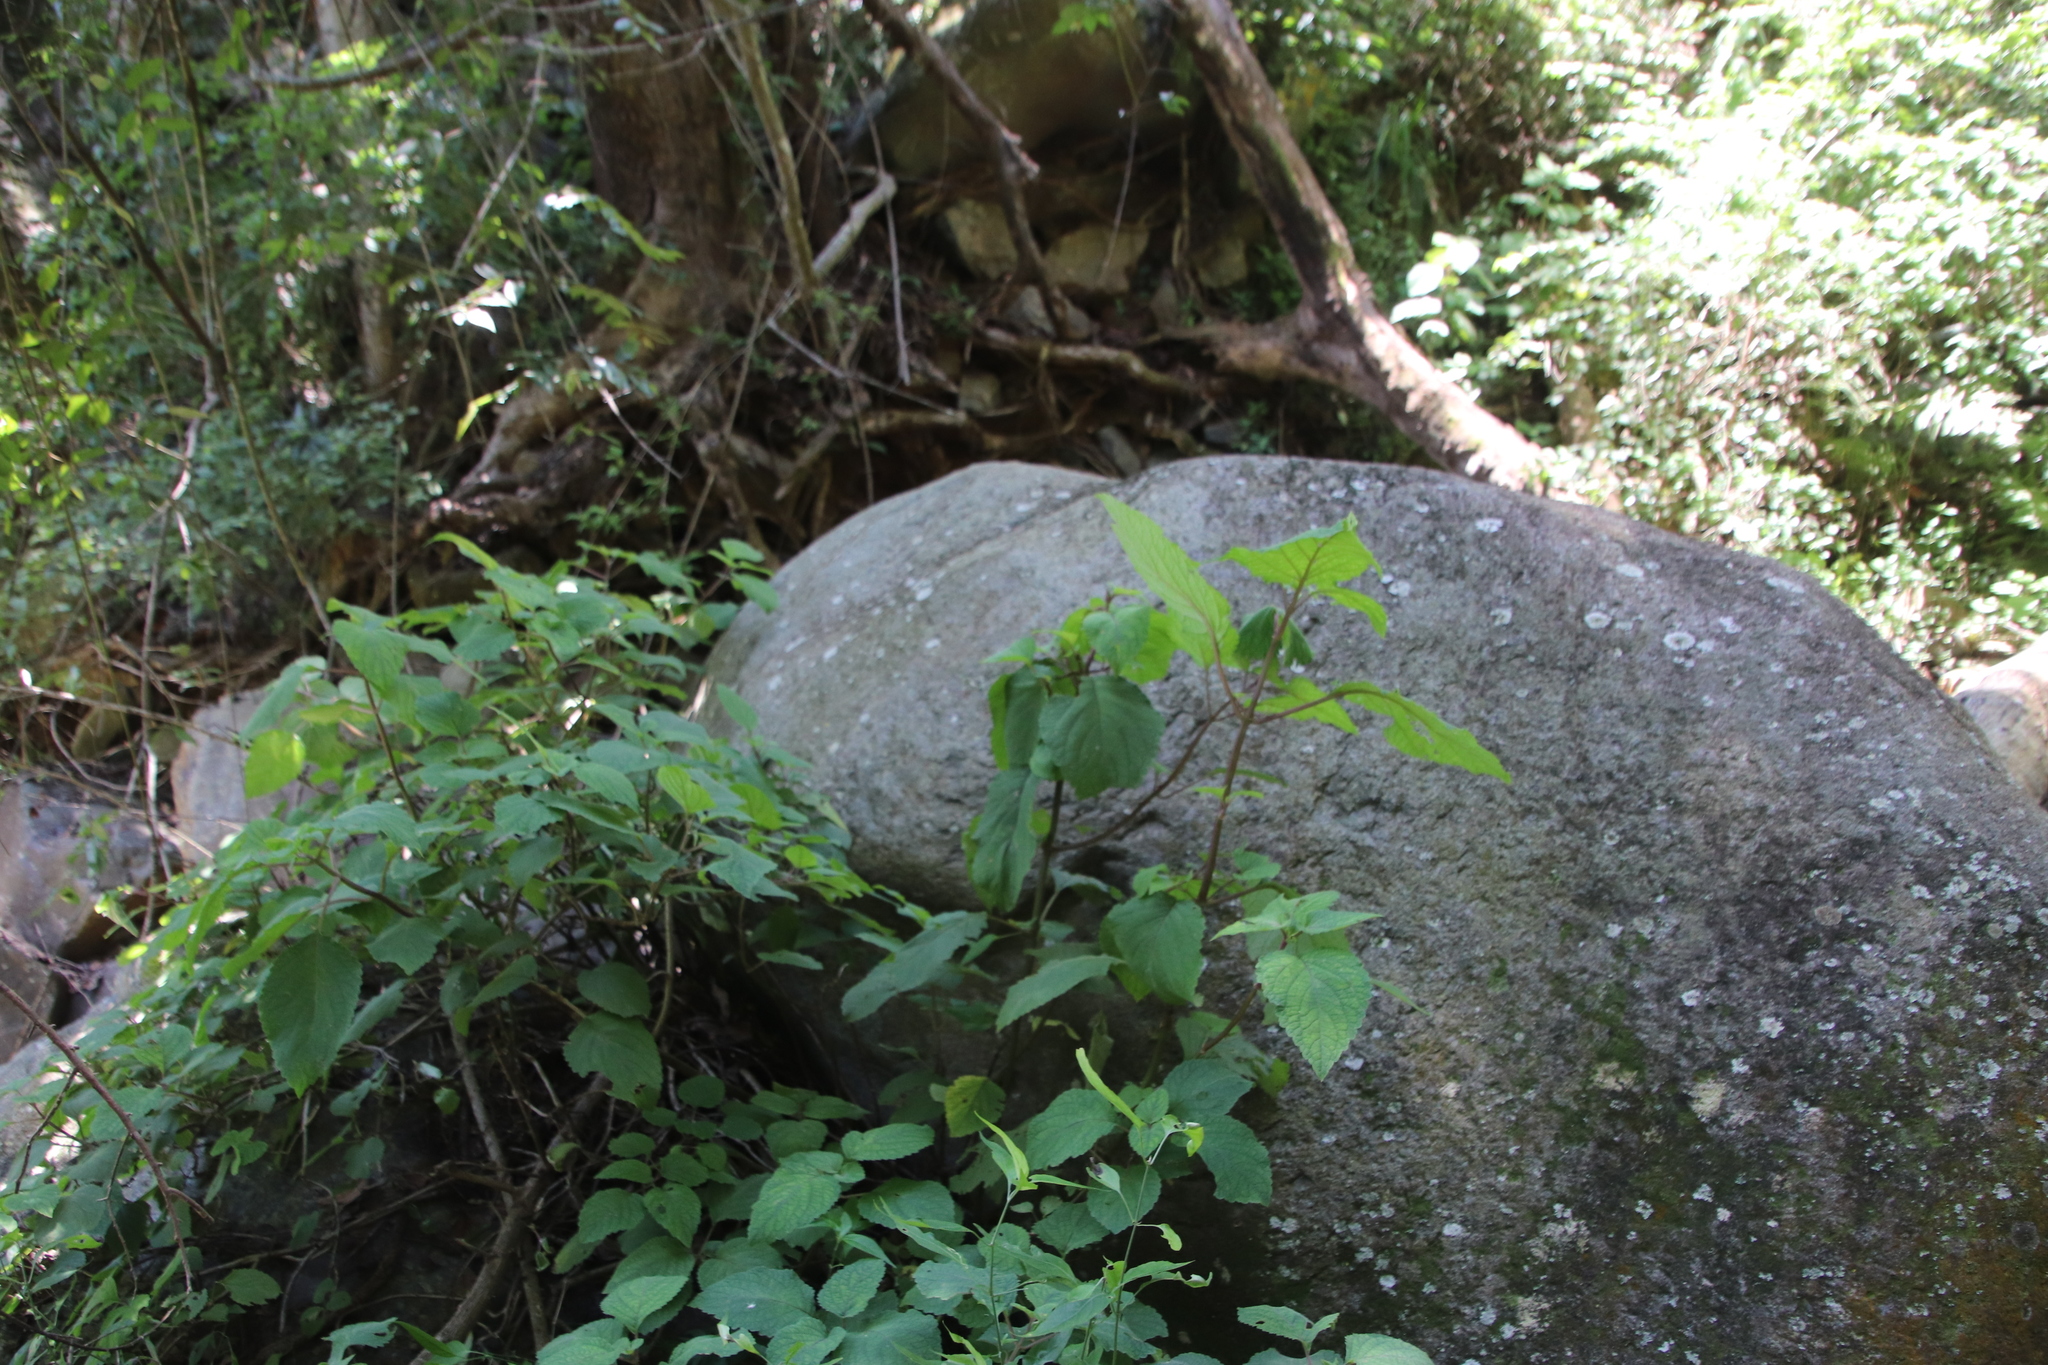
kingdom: Plantae
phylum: Tracheophyta
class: Magnoliopsida
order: Lamiales
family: Lamiaceae
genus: Plectranthus
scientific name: Plectranthus fruticosus
